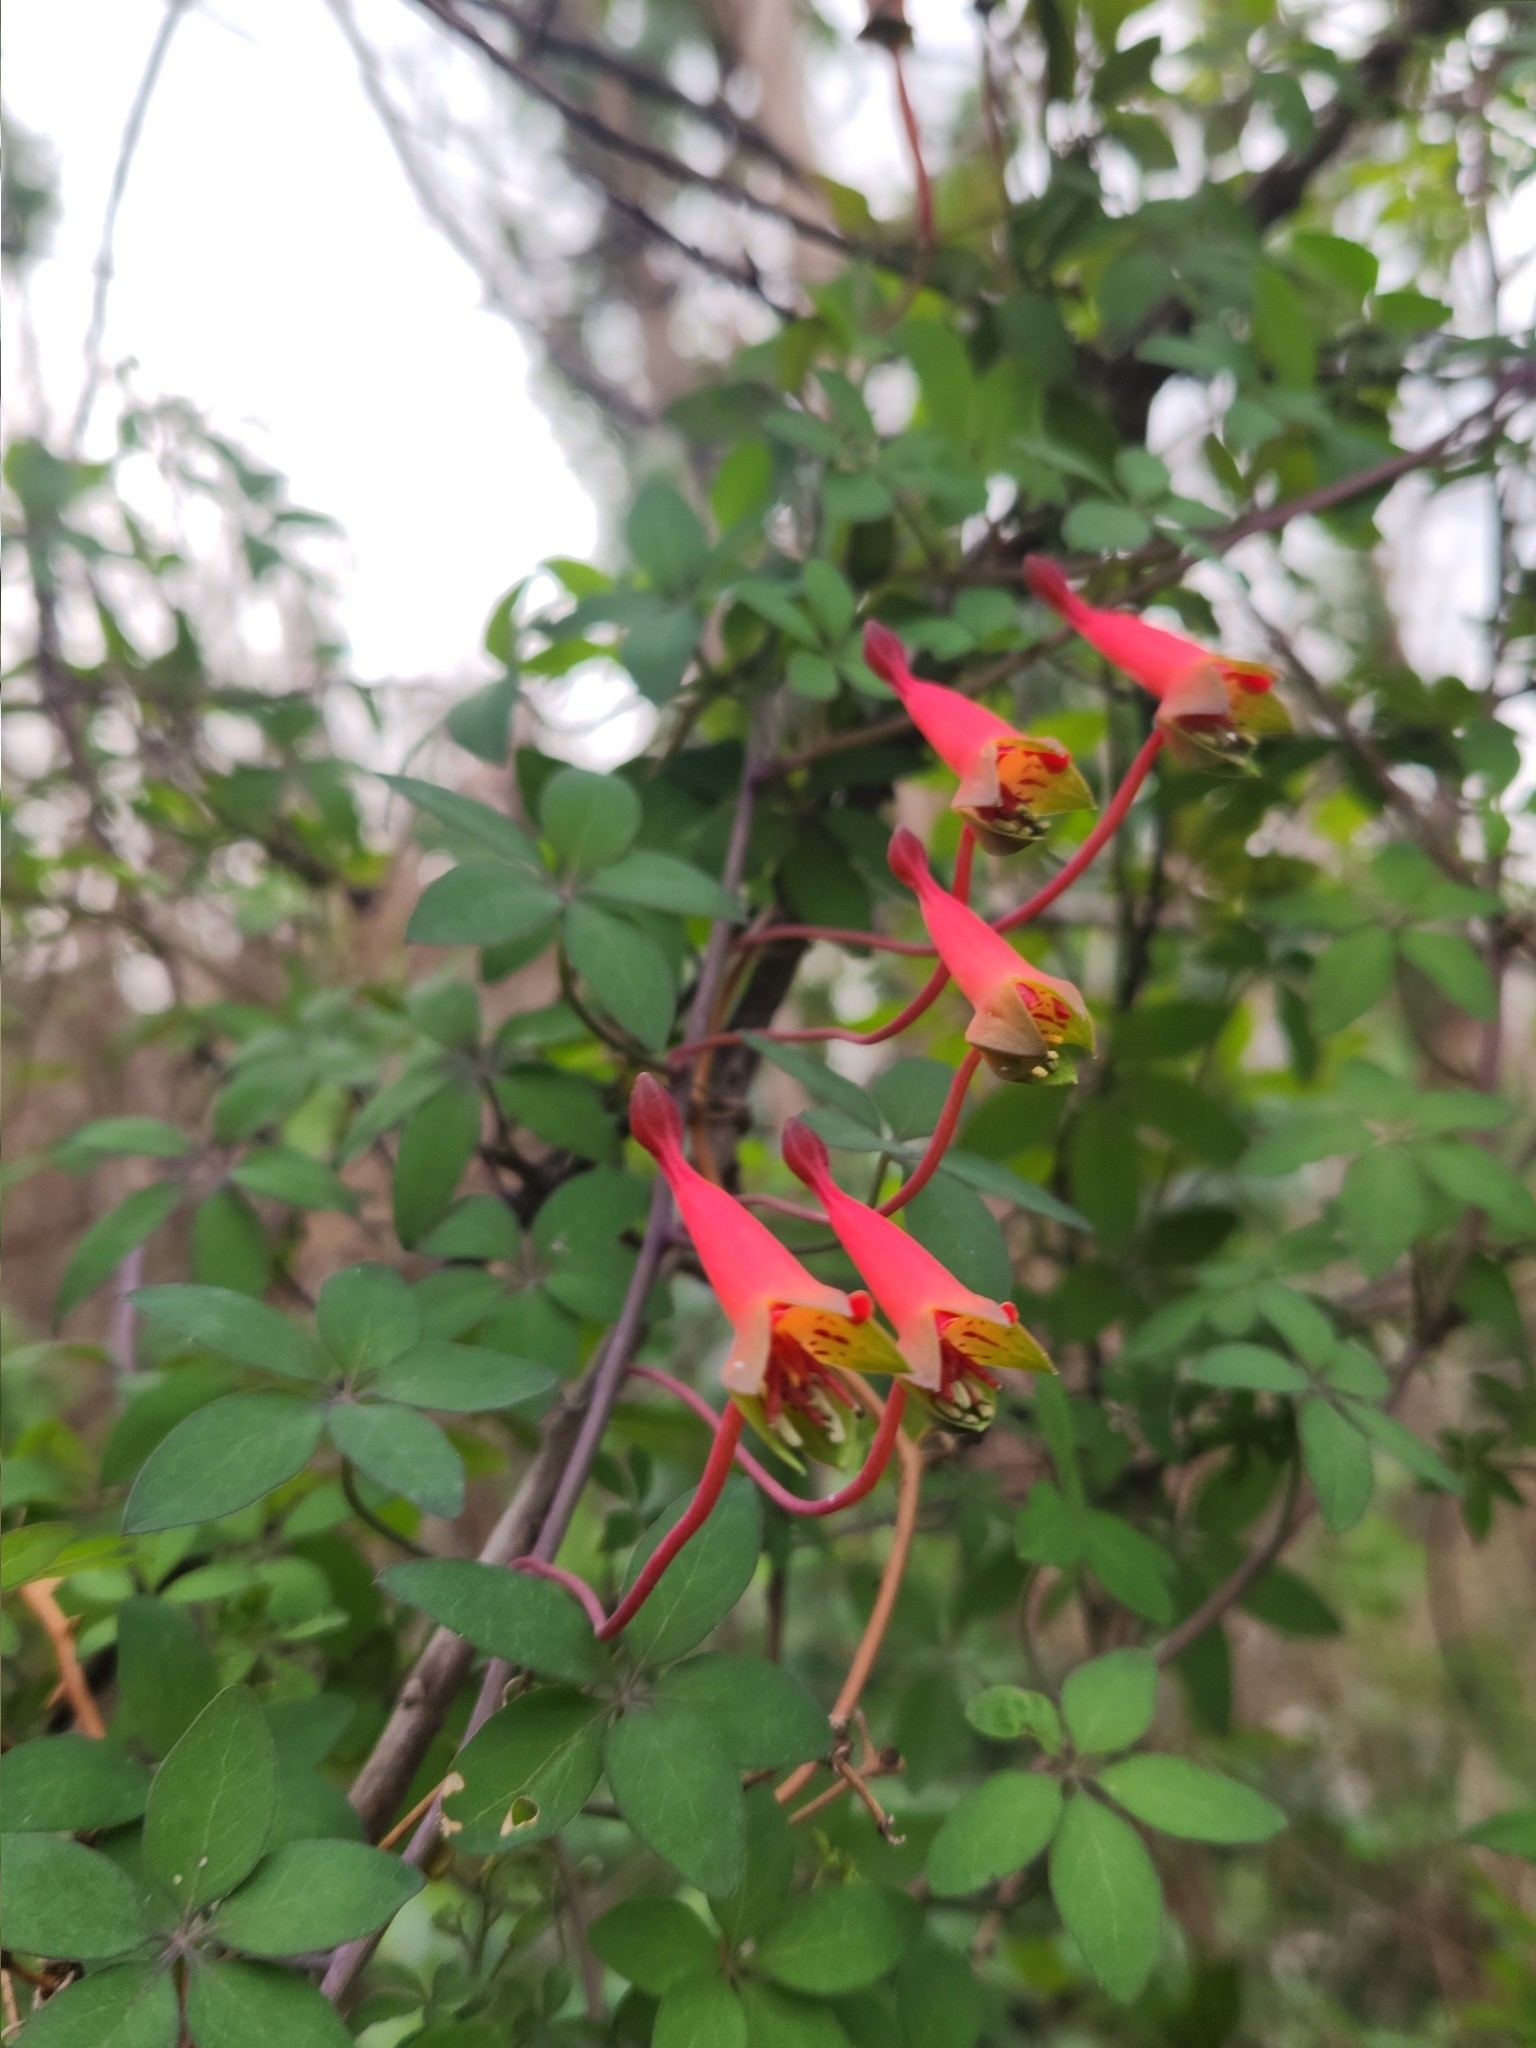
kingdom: Plantae
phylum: Tracheophyta
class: Magnoliopsida
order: Brassicales
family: Tropaeolaceae
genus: Tropaeolum
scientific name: Tropaeolum pentaphyllum
